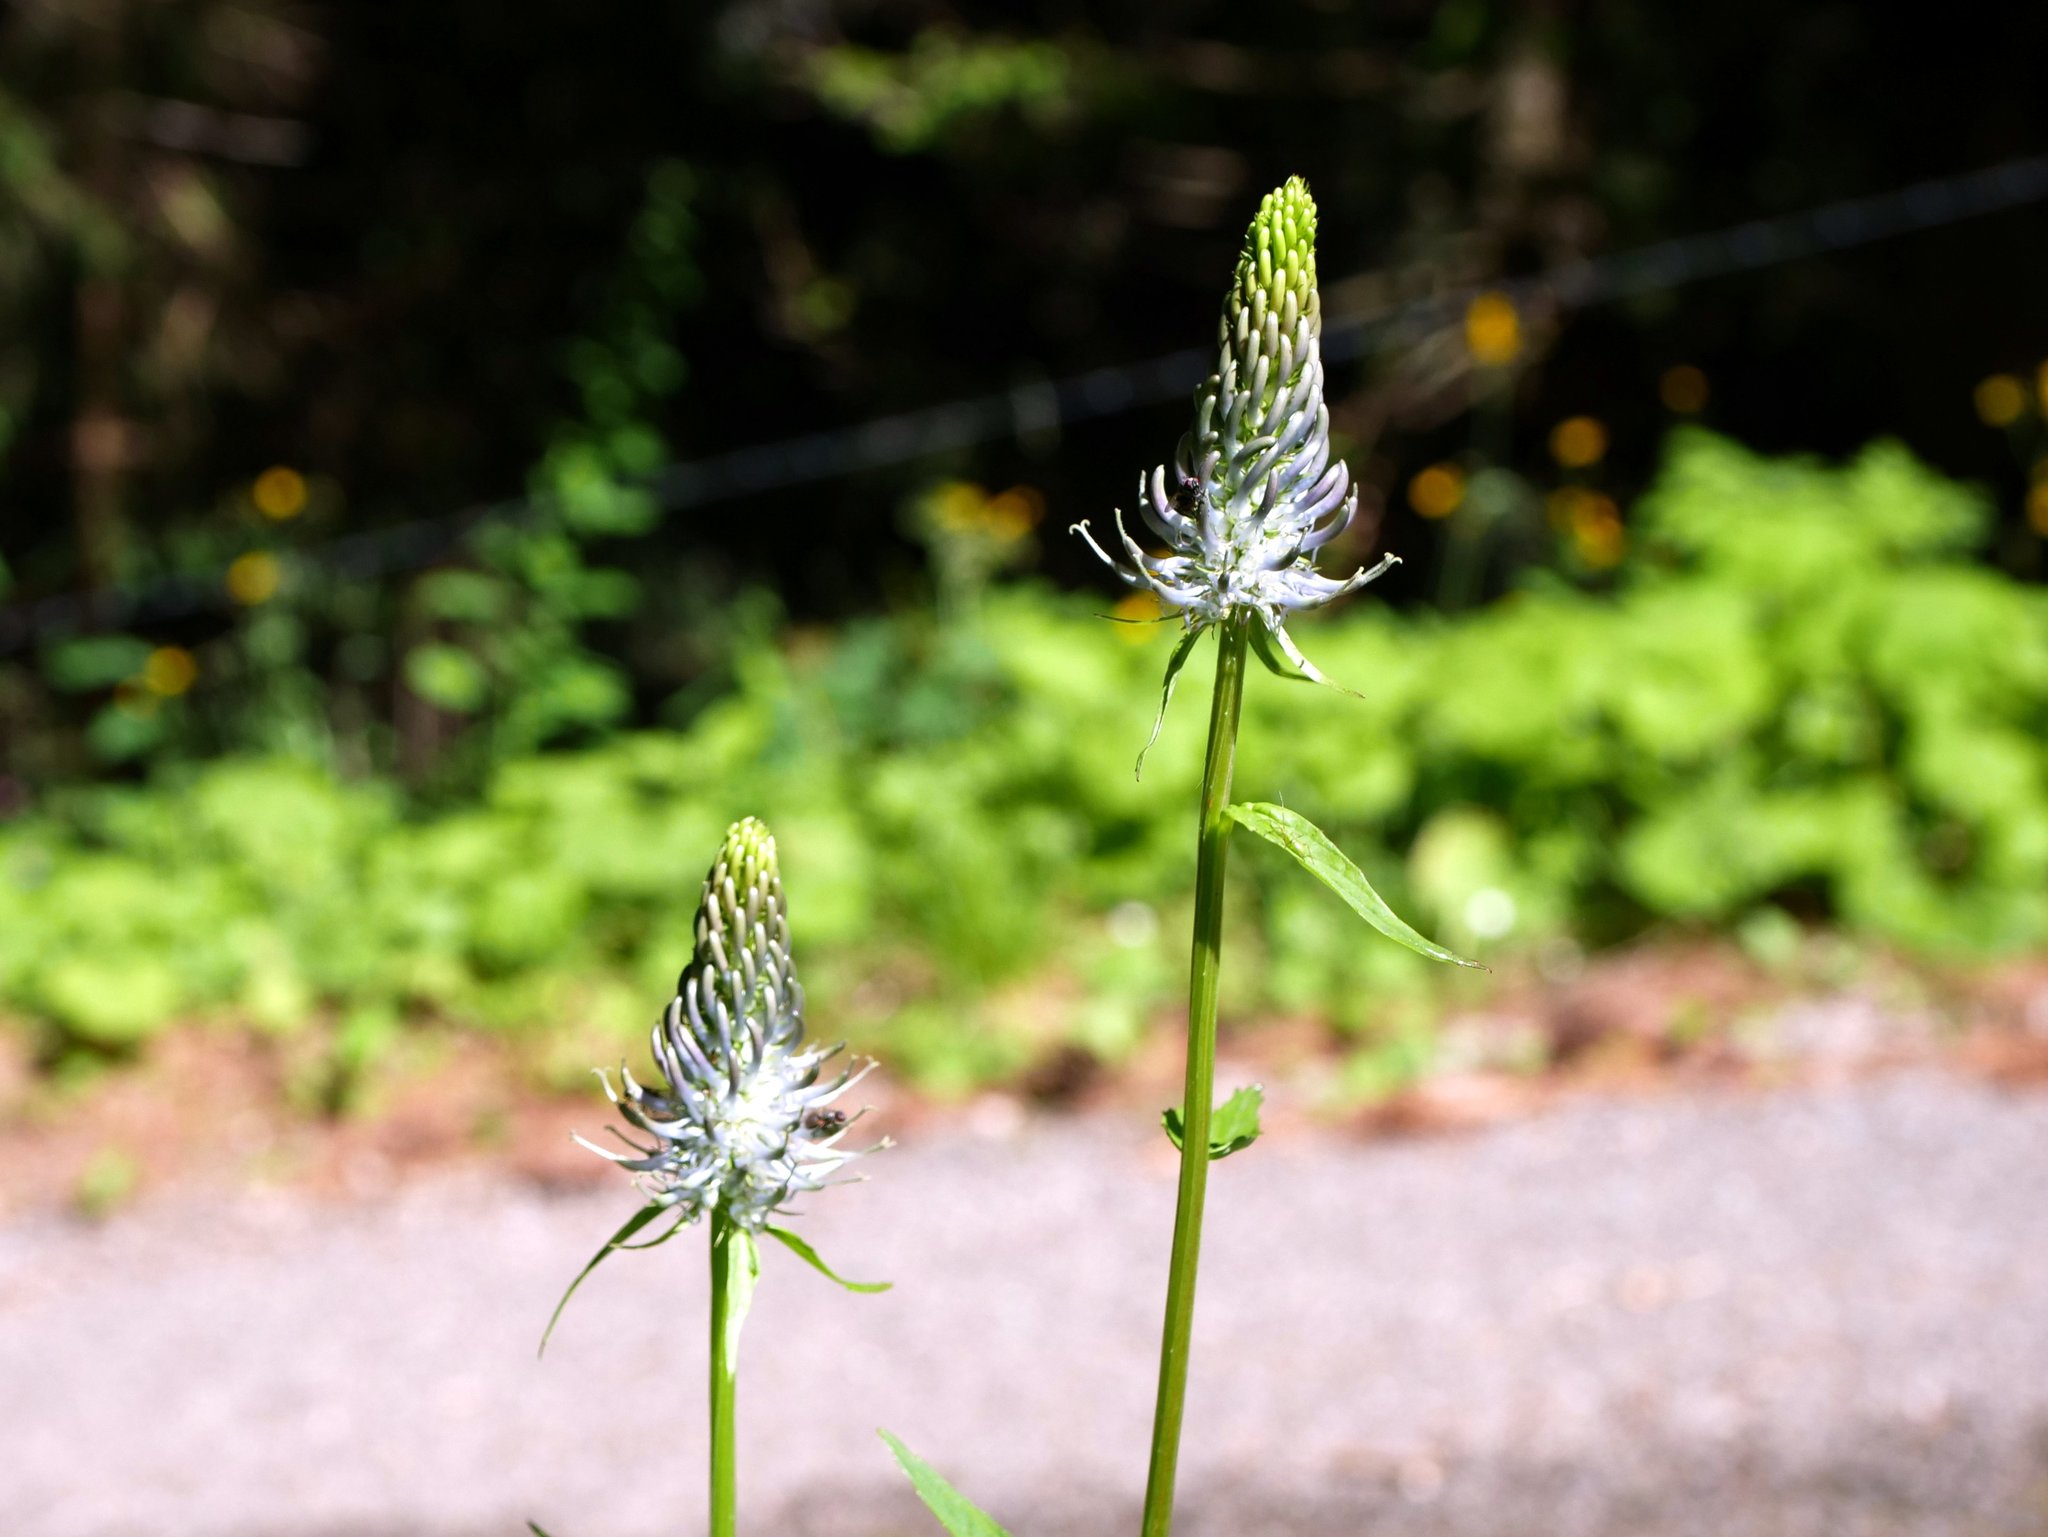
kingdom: Plantae
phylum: Tracheophyta
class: Magnoliopsida
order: Asterales
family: Campanulaceae
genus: Phyteuma
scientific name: Phyteuma spicatum
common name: Spiked rampion
